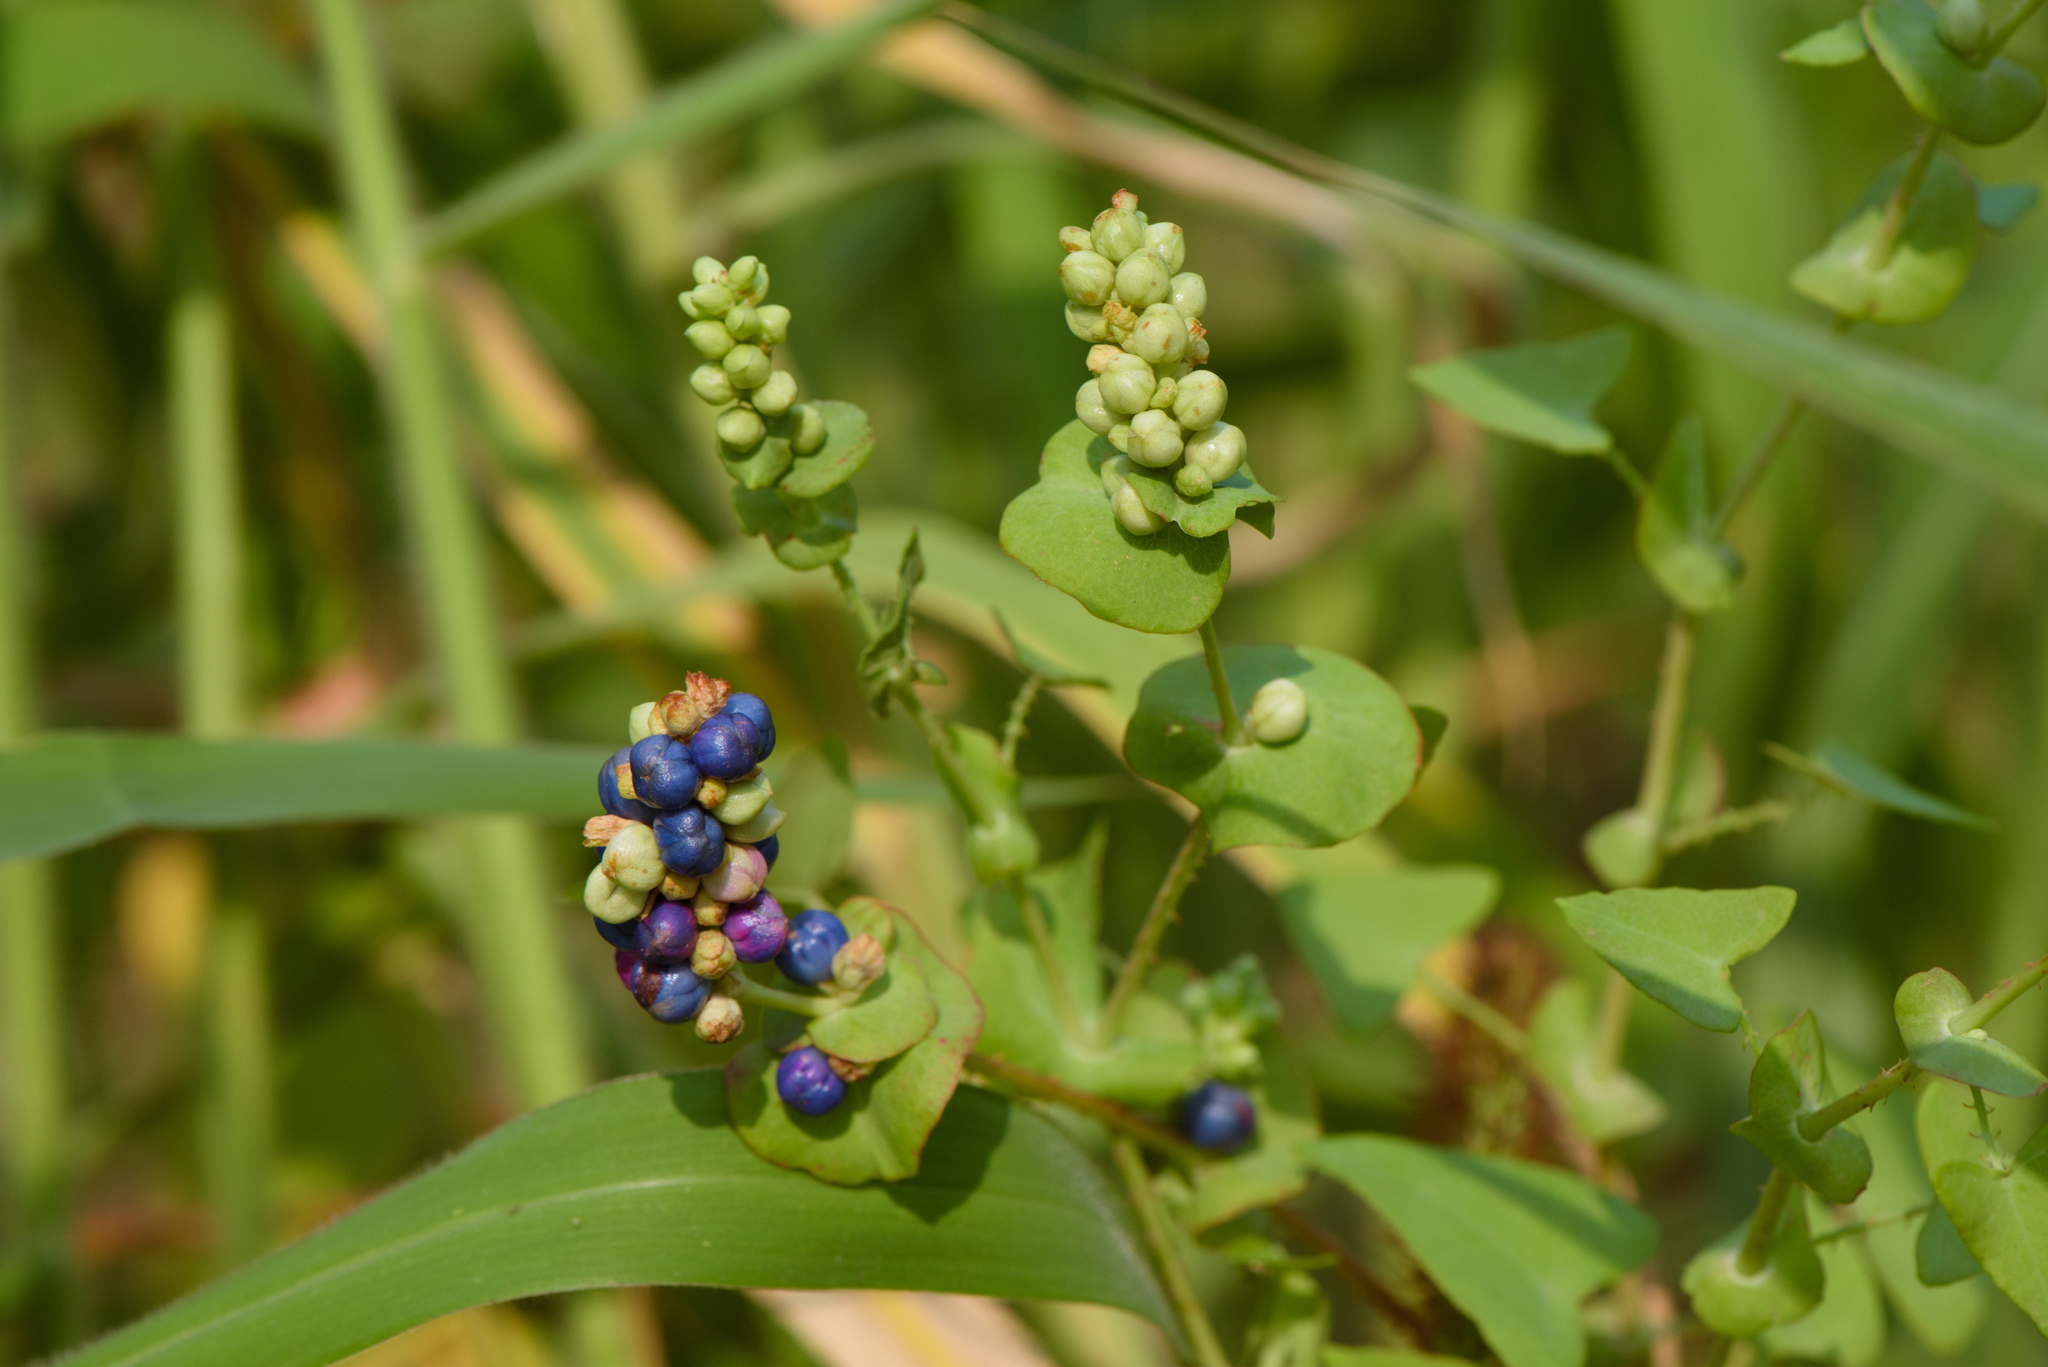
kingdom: Plantae
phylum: Tracheophyta
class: Magnoliopsida
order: Caryophyllales
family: Polygonaceae
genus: Persicaria
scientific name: Persicaria perfoliata
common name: Asiatic tearthumb
